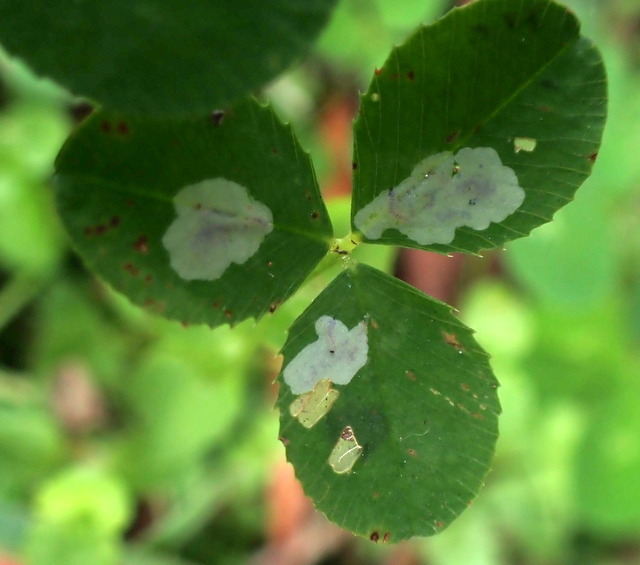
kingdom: Animalia
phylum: Arthropoda
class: Insecta
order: Lepidoptera
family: Gracillariidae
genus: Porphyrosela
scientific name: Porphyrosela minuta
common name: Leaf miner moth
